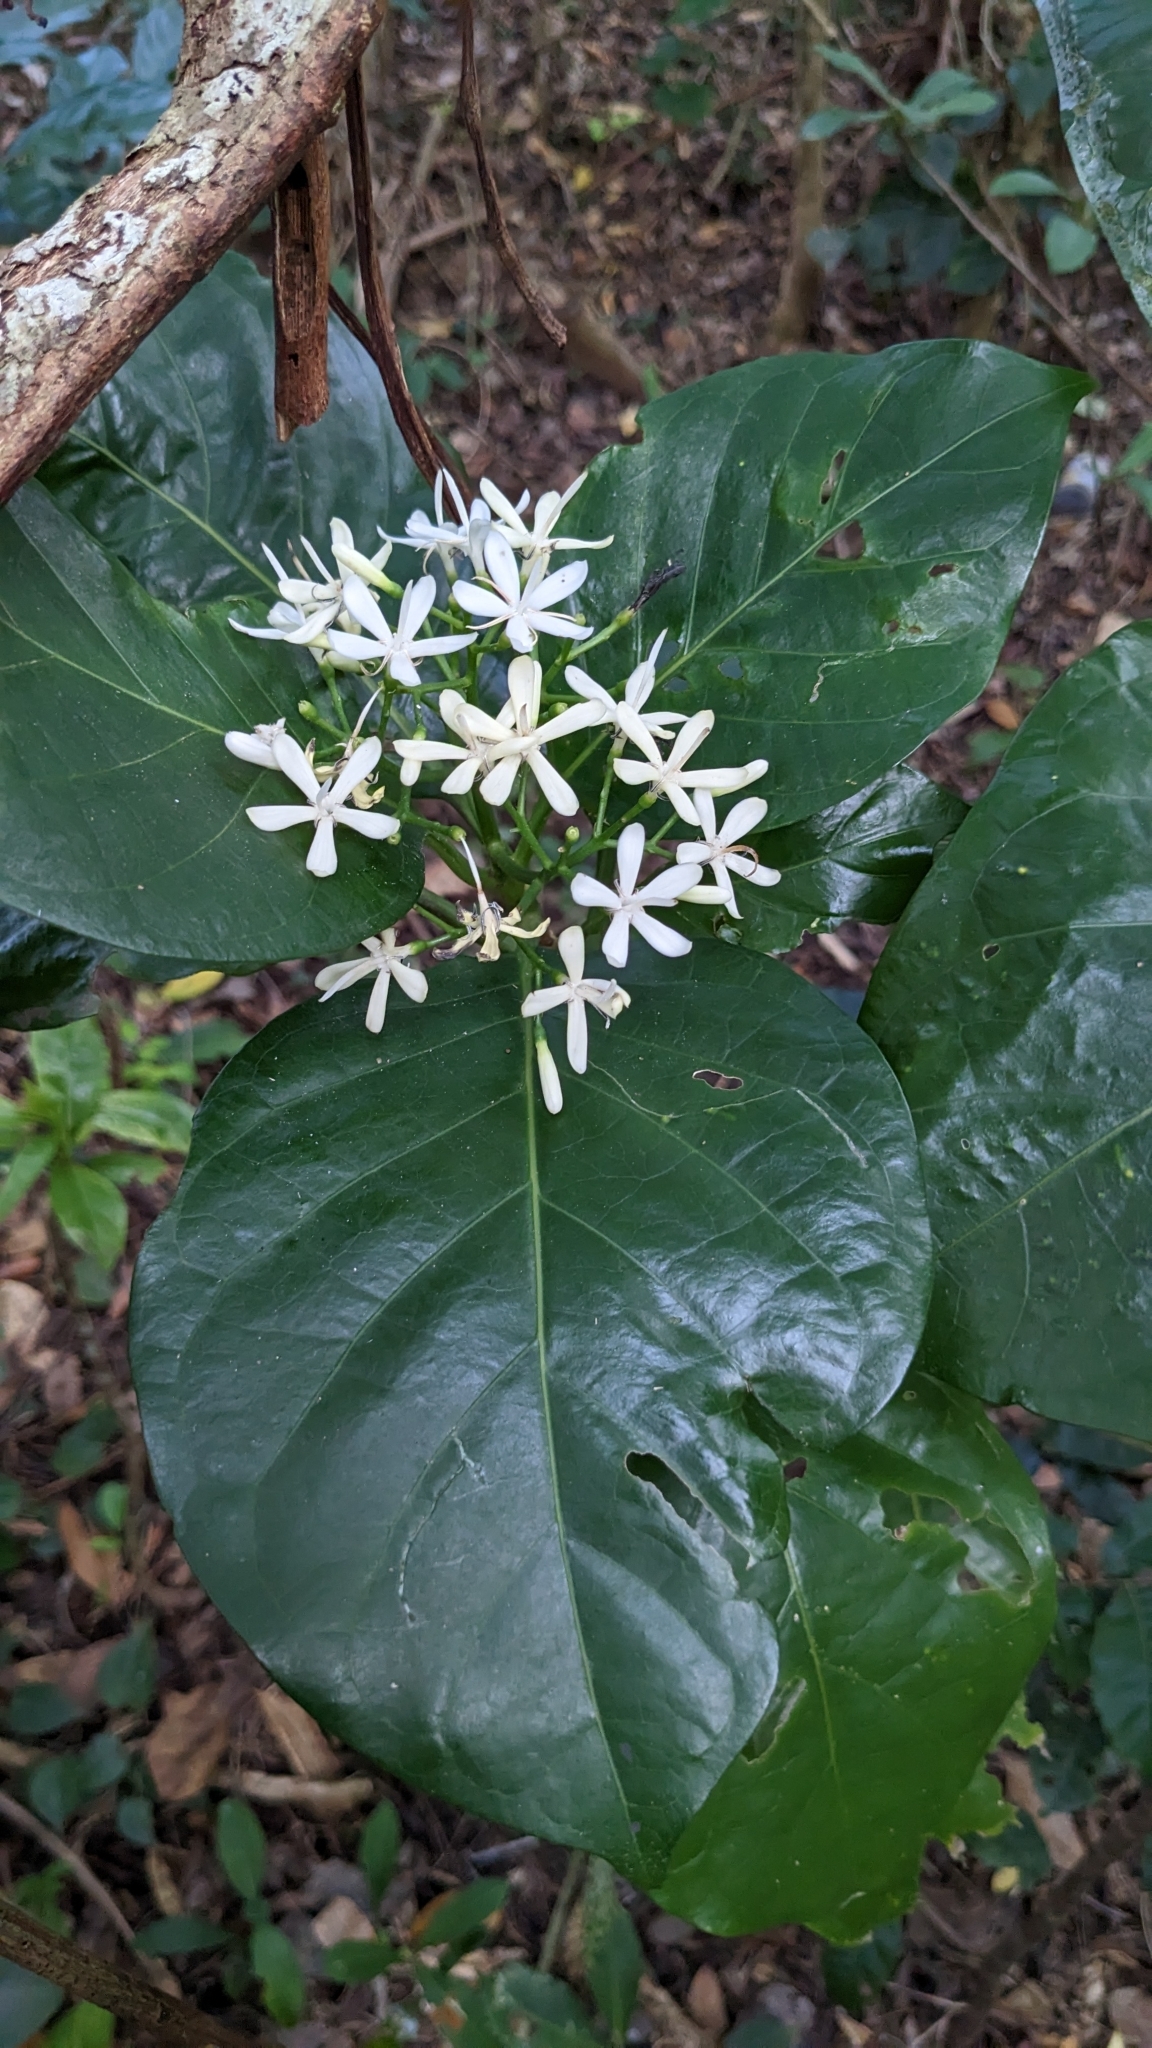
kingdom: Plantae
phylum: Tracheophyta
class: Magnoliopsida
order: Gentianales
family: Rubiaceae
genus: Tarenna
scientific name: Tarenna asiatica
